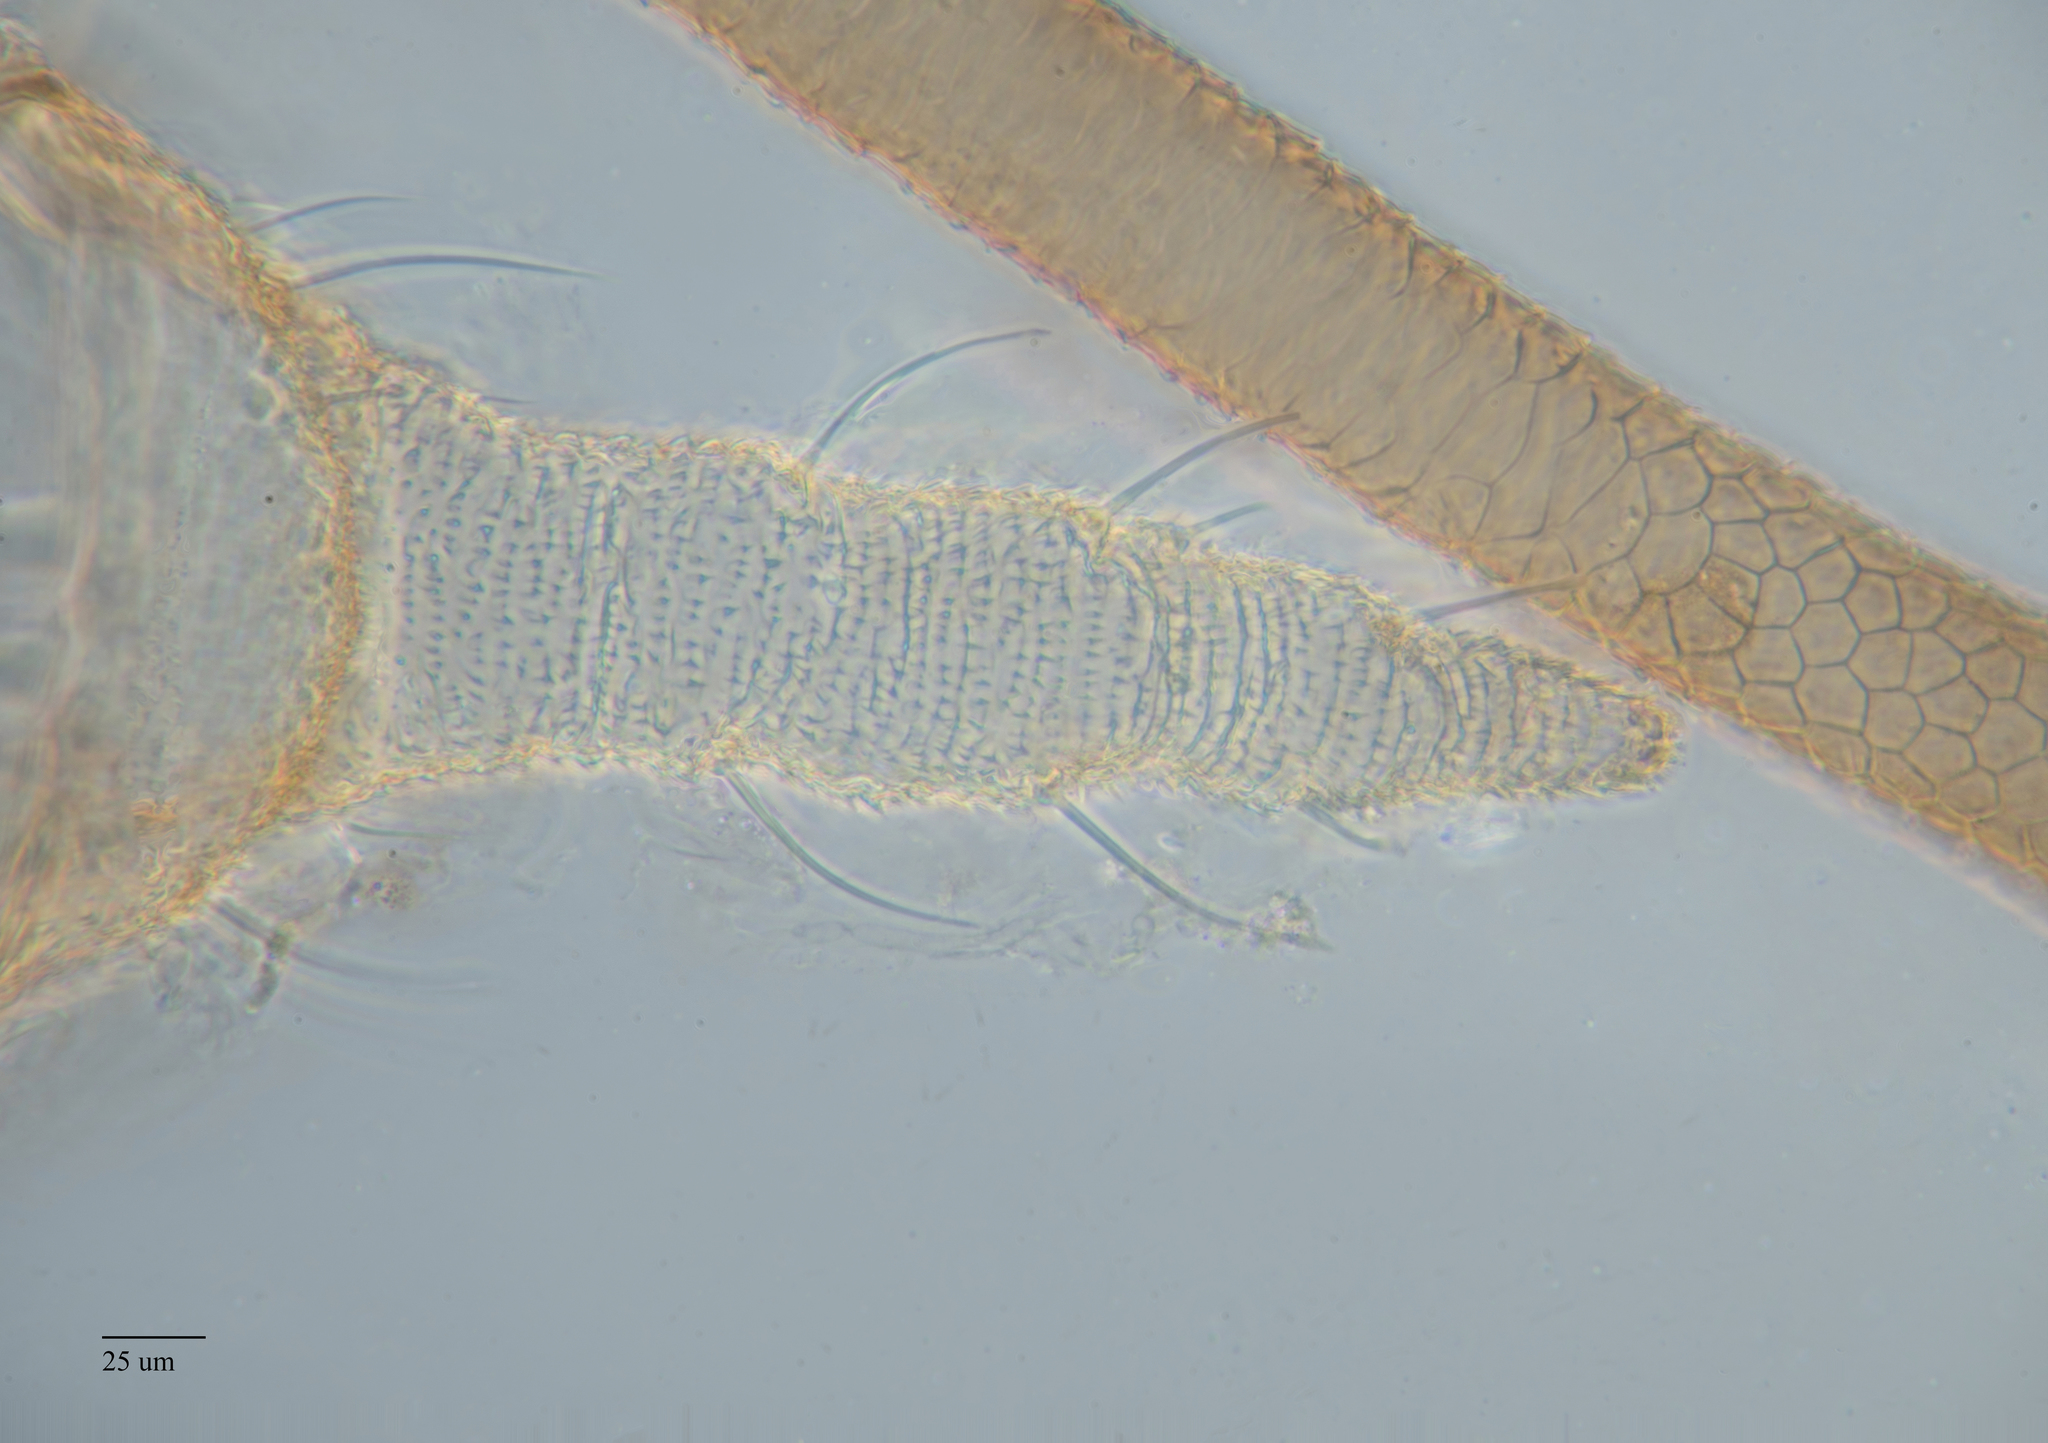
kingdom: Animalia
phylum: Arthropoda
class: Insecta
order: Hemiptera
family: Aphididae
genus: Uroleucon
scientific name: Uroleucon erigeronense
